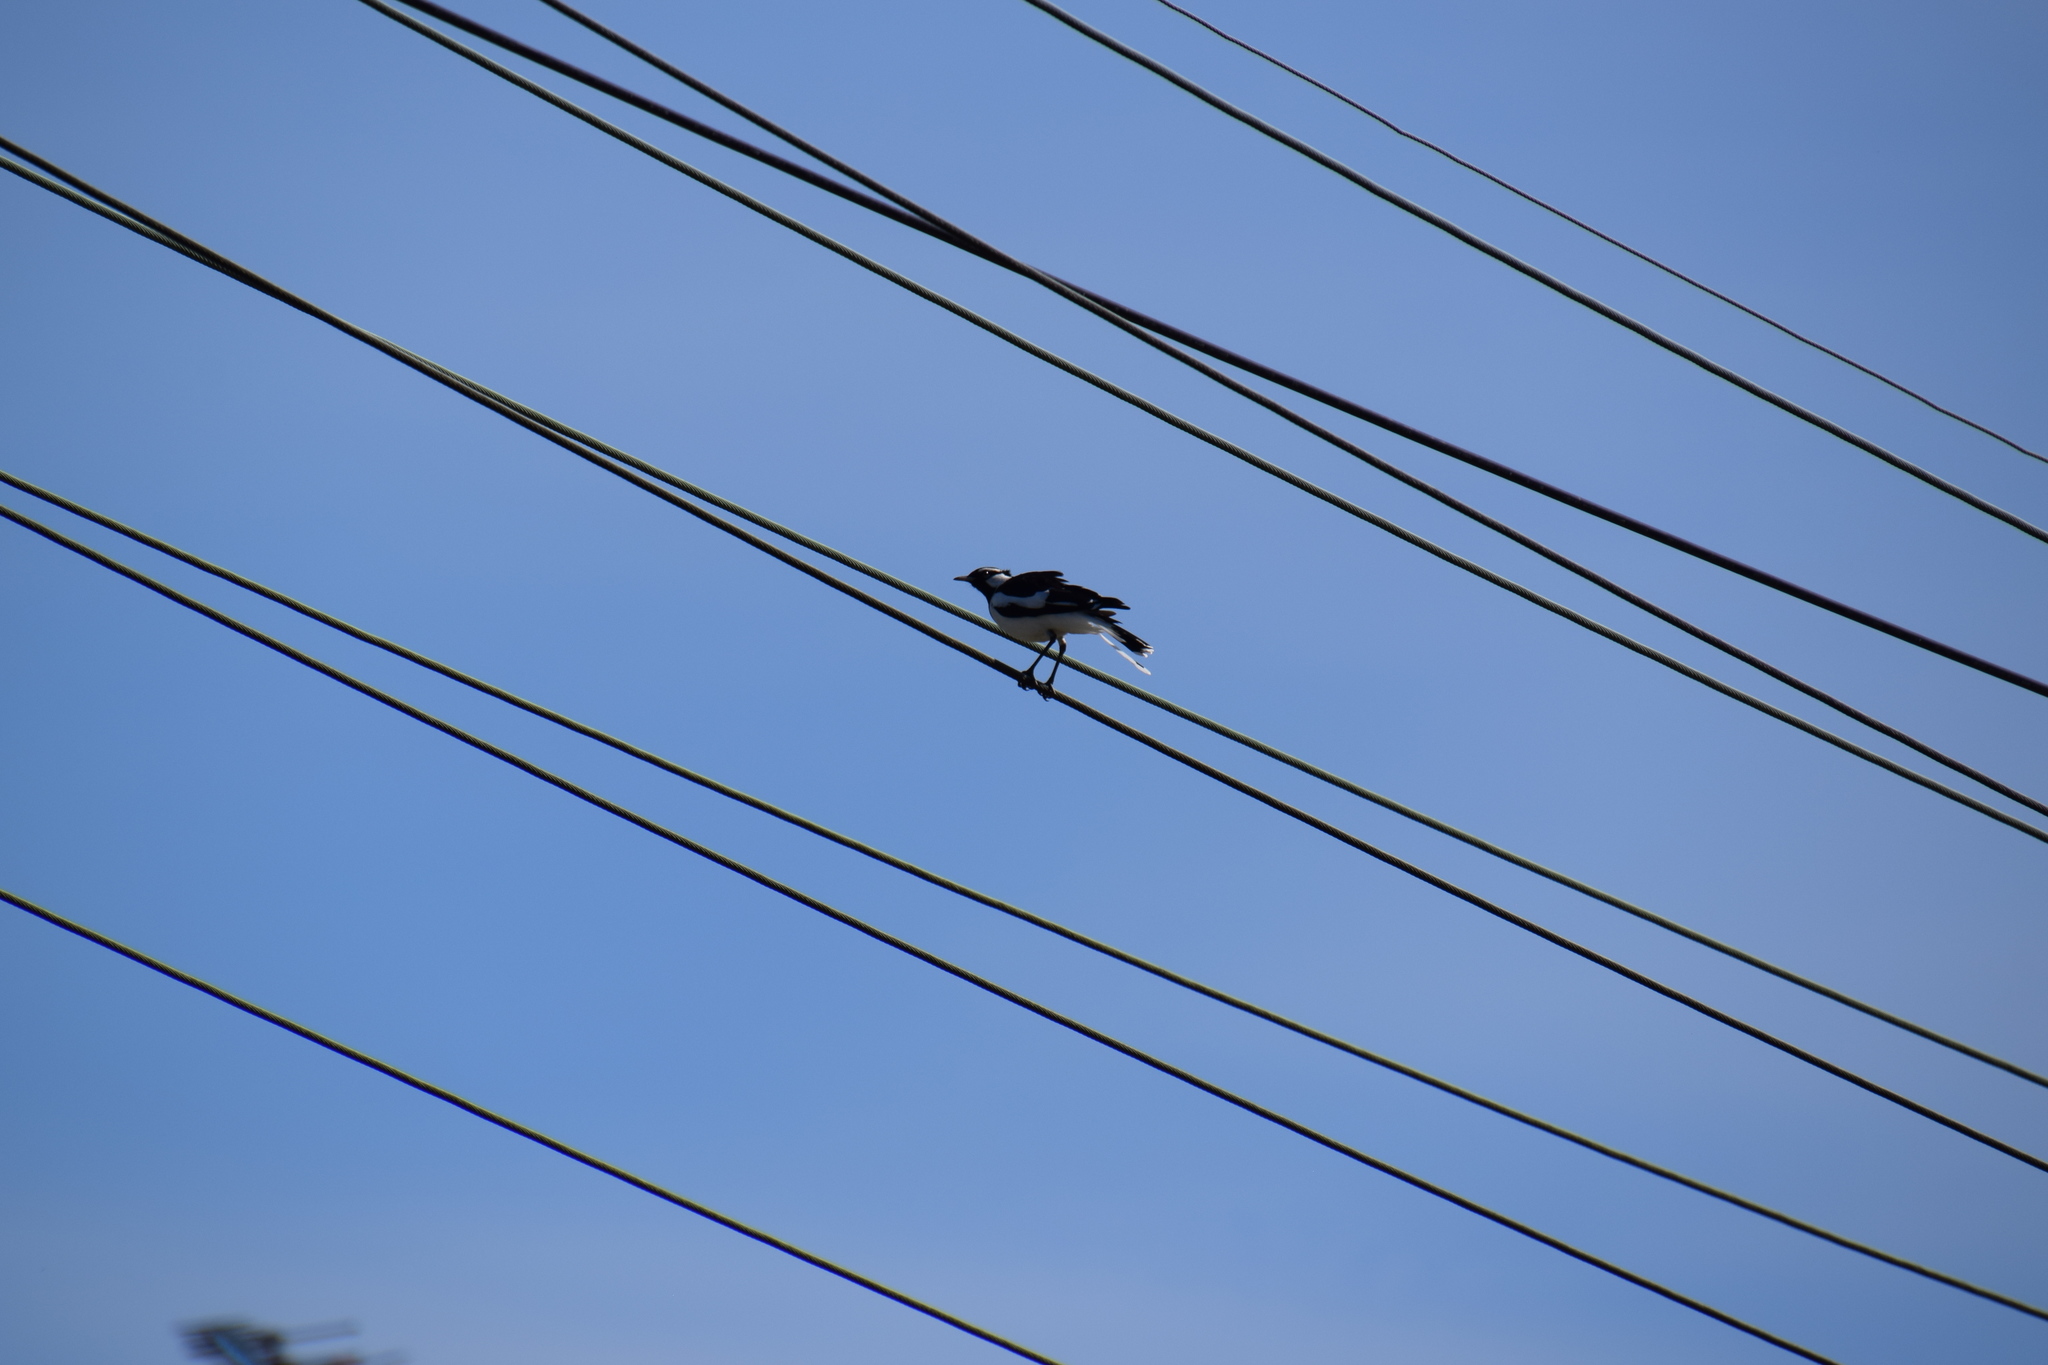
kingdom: Animalia
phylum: Chordata
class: Aves
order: Passeriformes
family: Monarchidae
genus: Grallina
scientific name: Grallina cyanoleuca
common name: Magpie-lark
